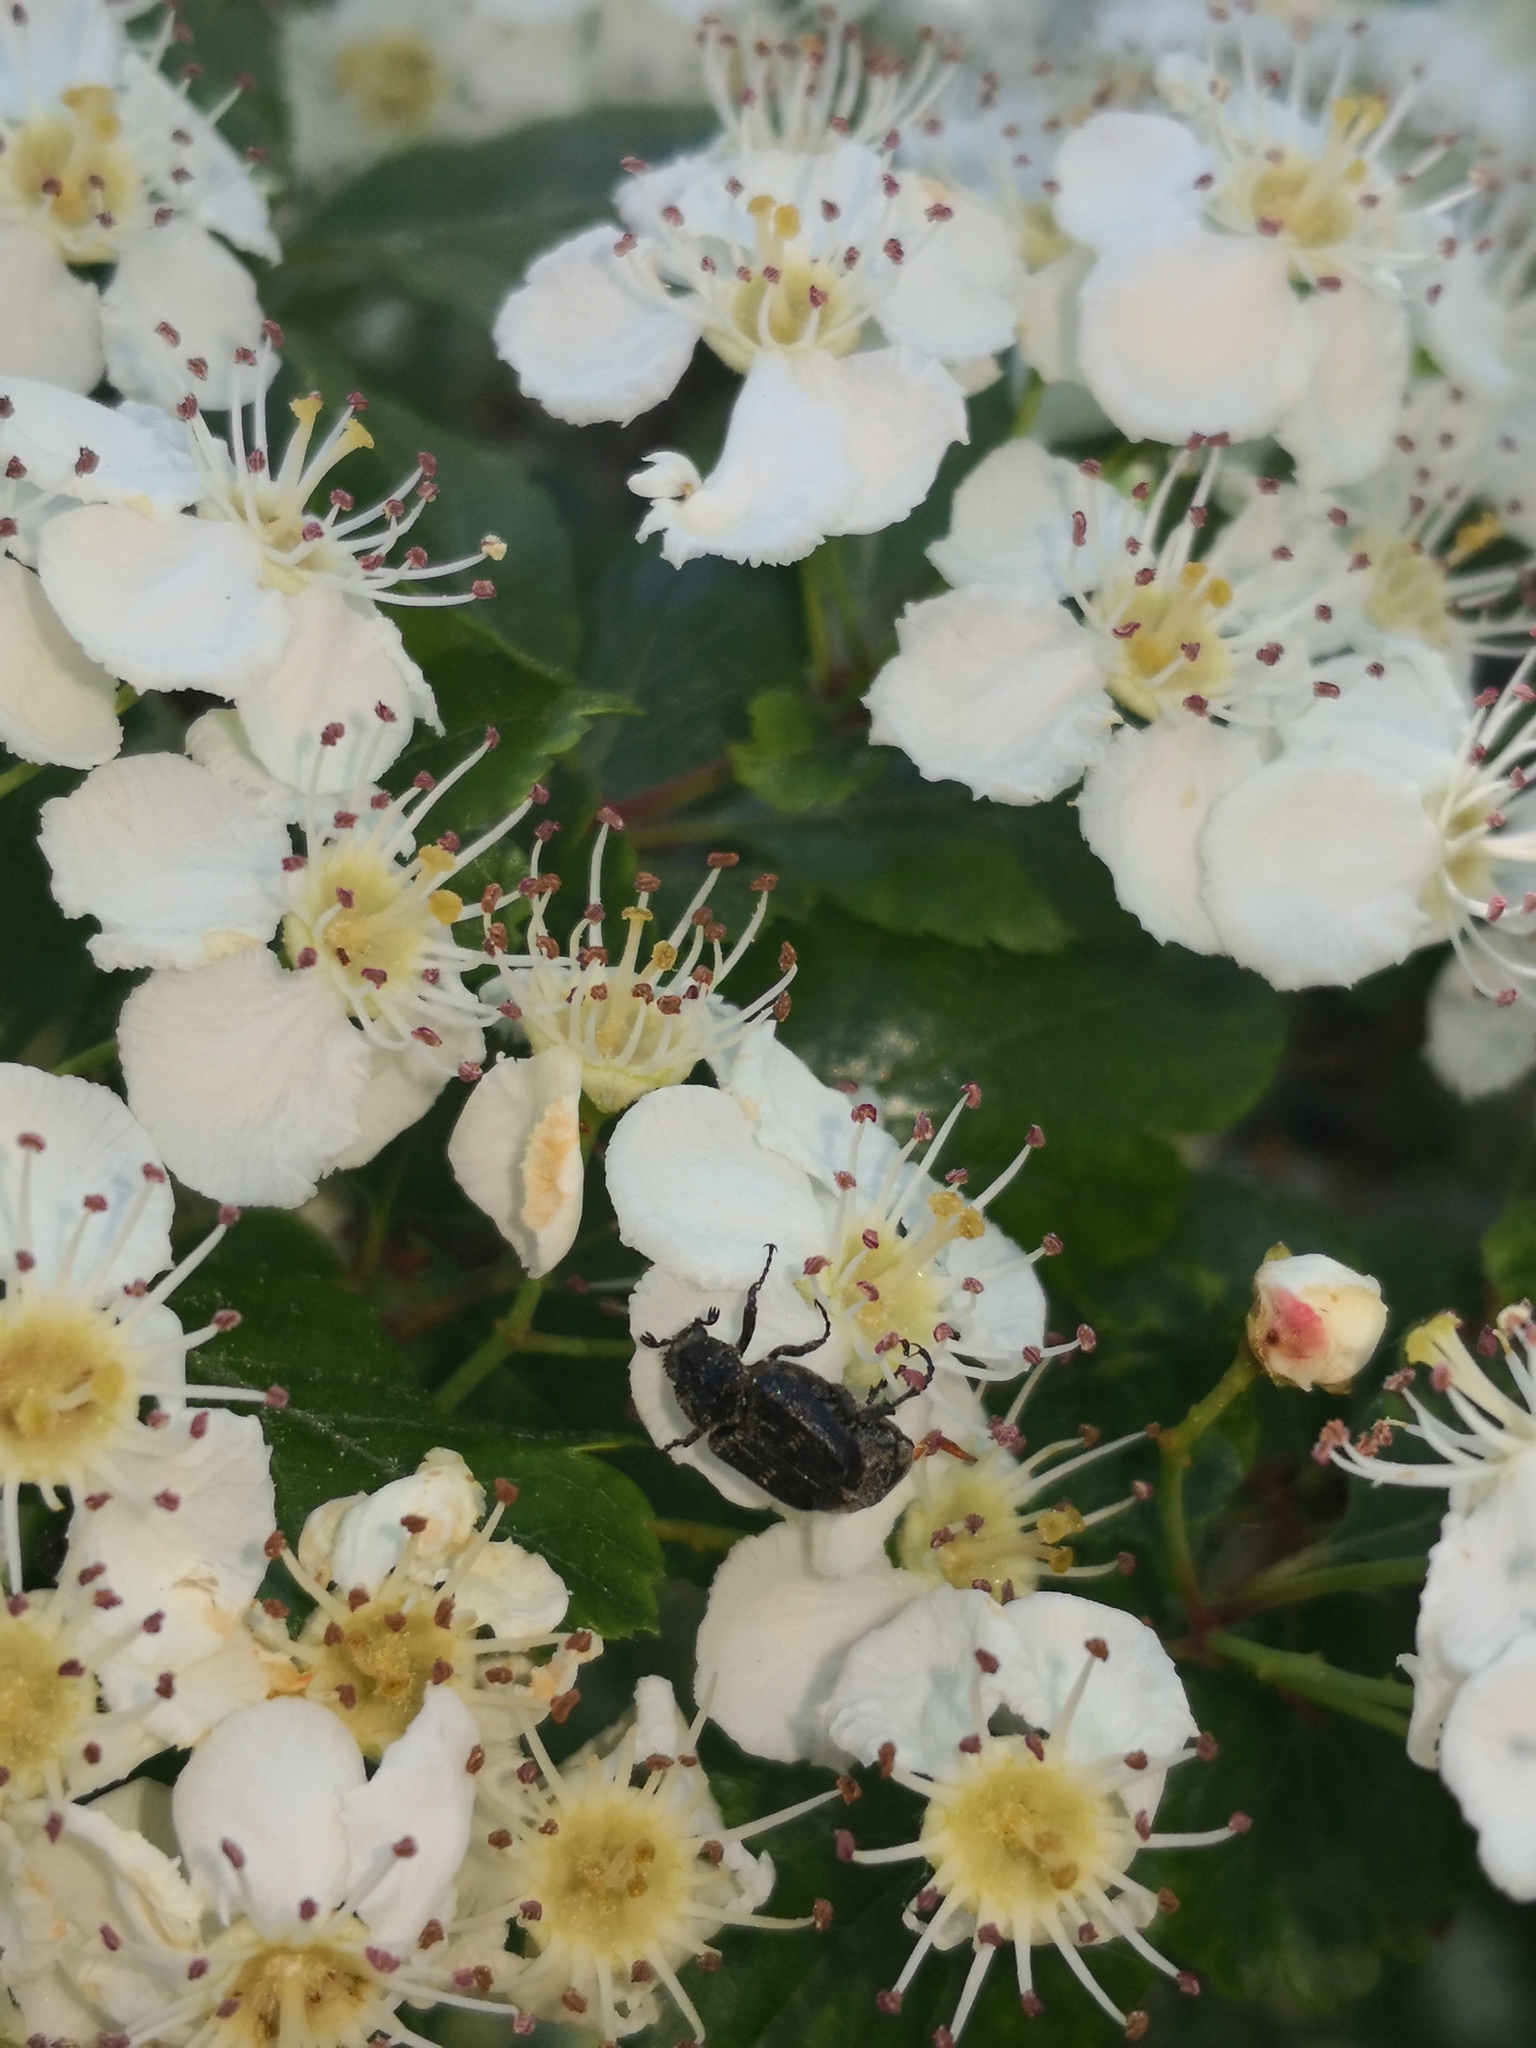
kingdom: Animalia
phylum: Arthropoda
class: Insecta
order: Coleoptera
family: Scarabaeidae
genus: Valgus
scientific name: Valgus hemipterus
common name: Bug flower chafer
